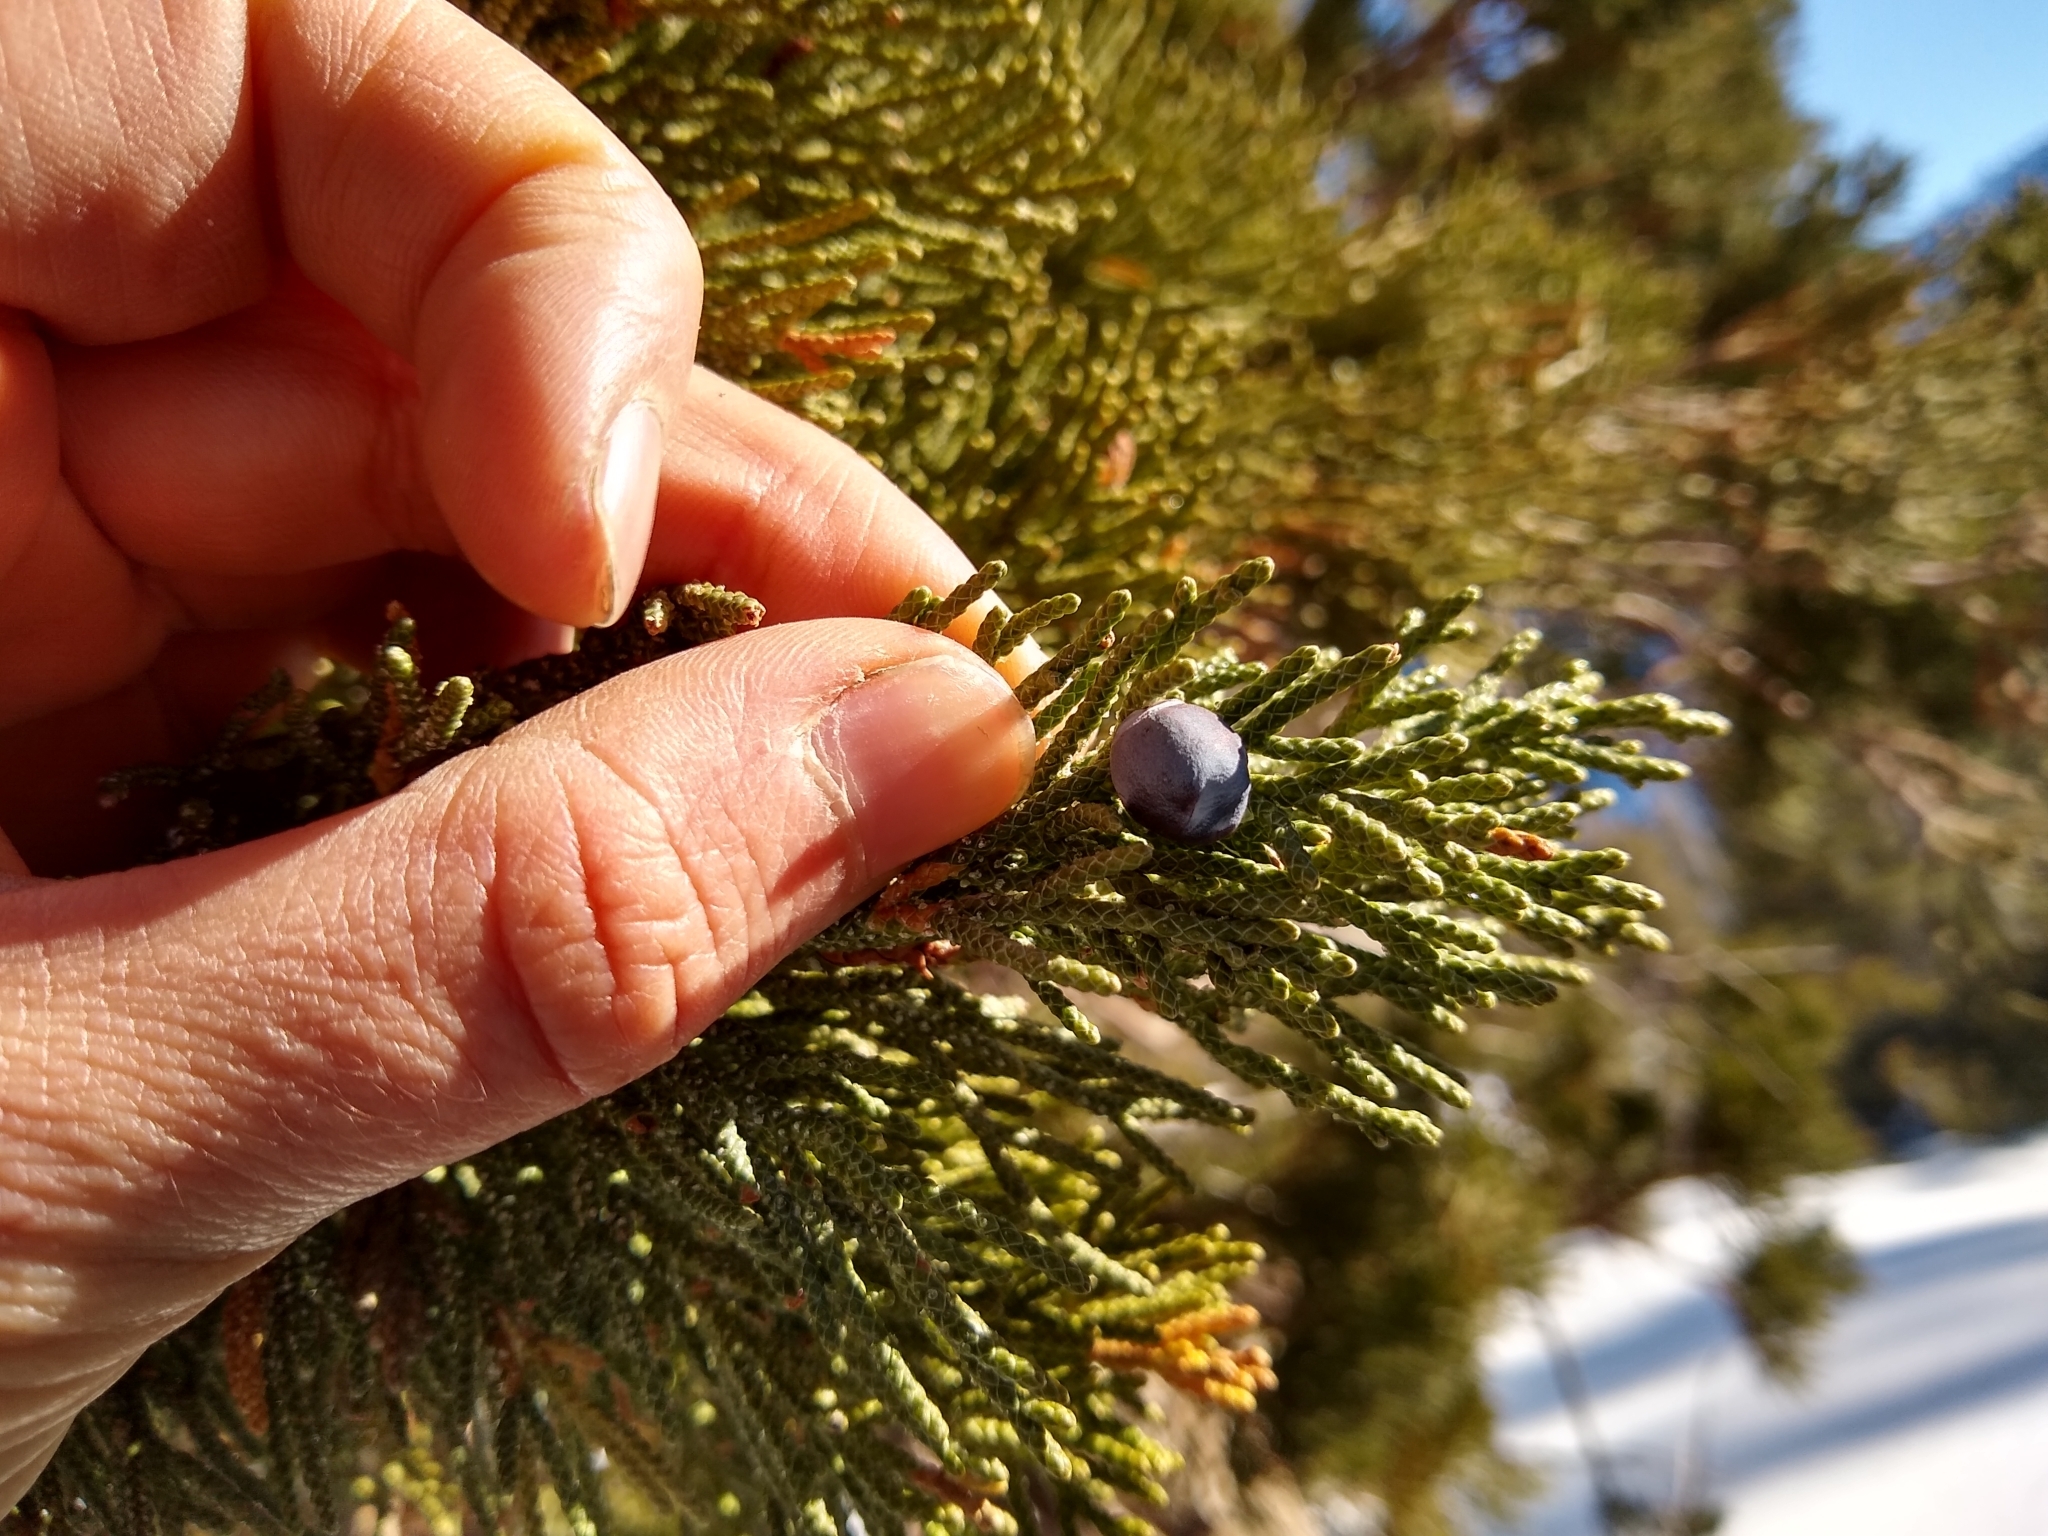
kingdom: Plantae
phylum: Tracheophyta
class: Pinopsida
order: Pinales
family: Cupressaceae
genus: Juniperus
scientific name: Juniperus occidentalis
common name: Western juniper
